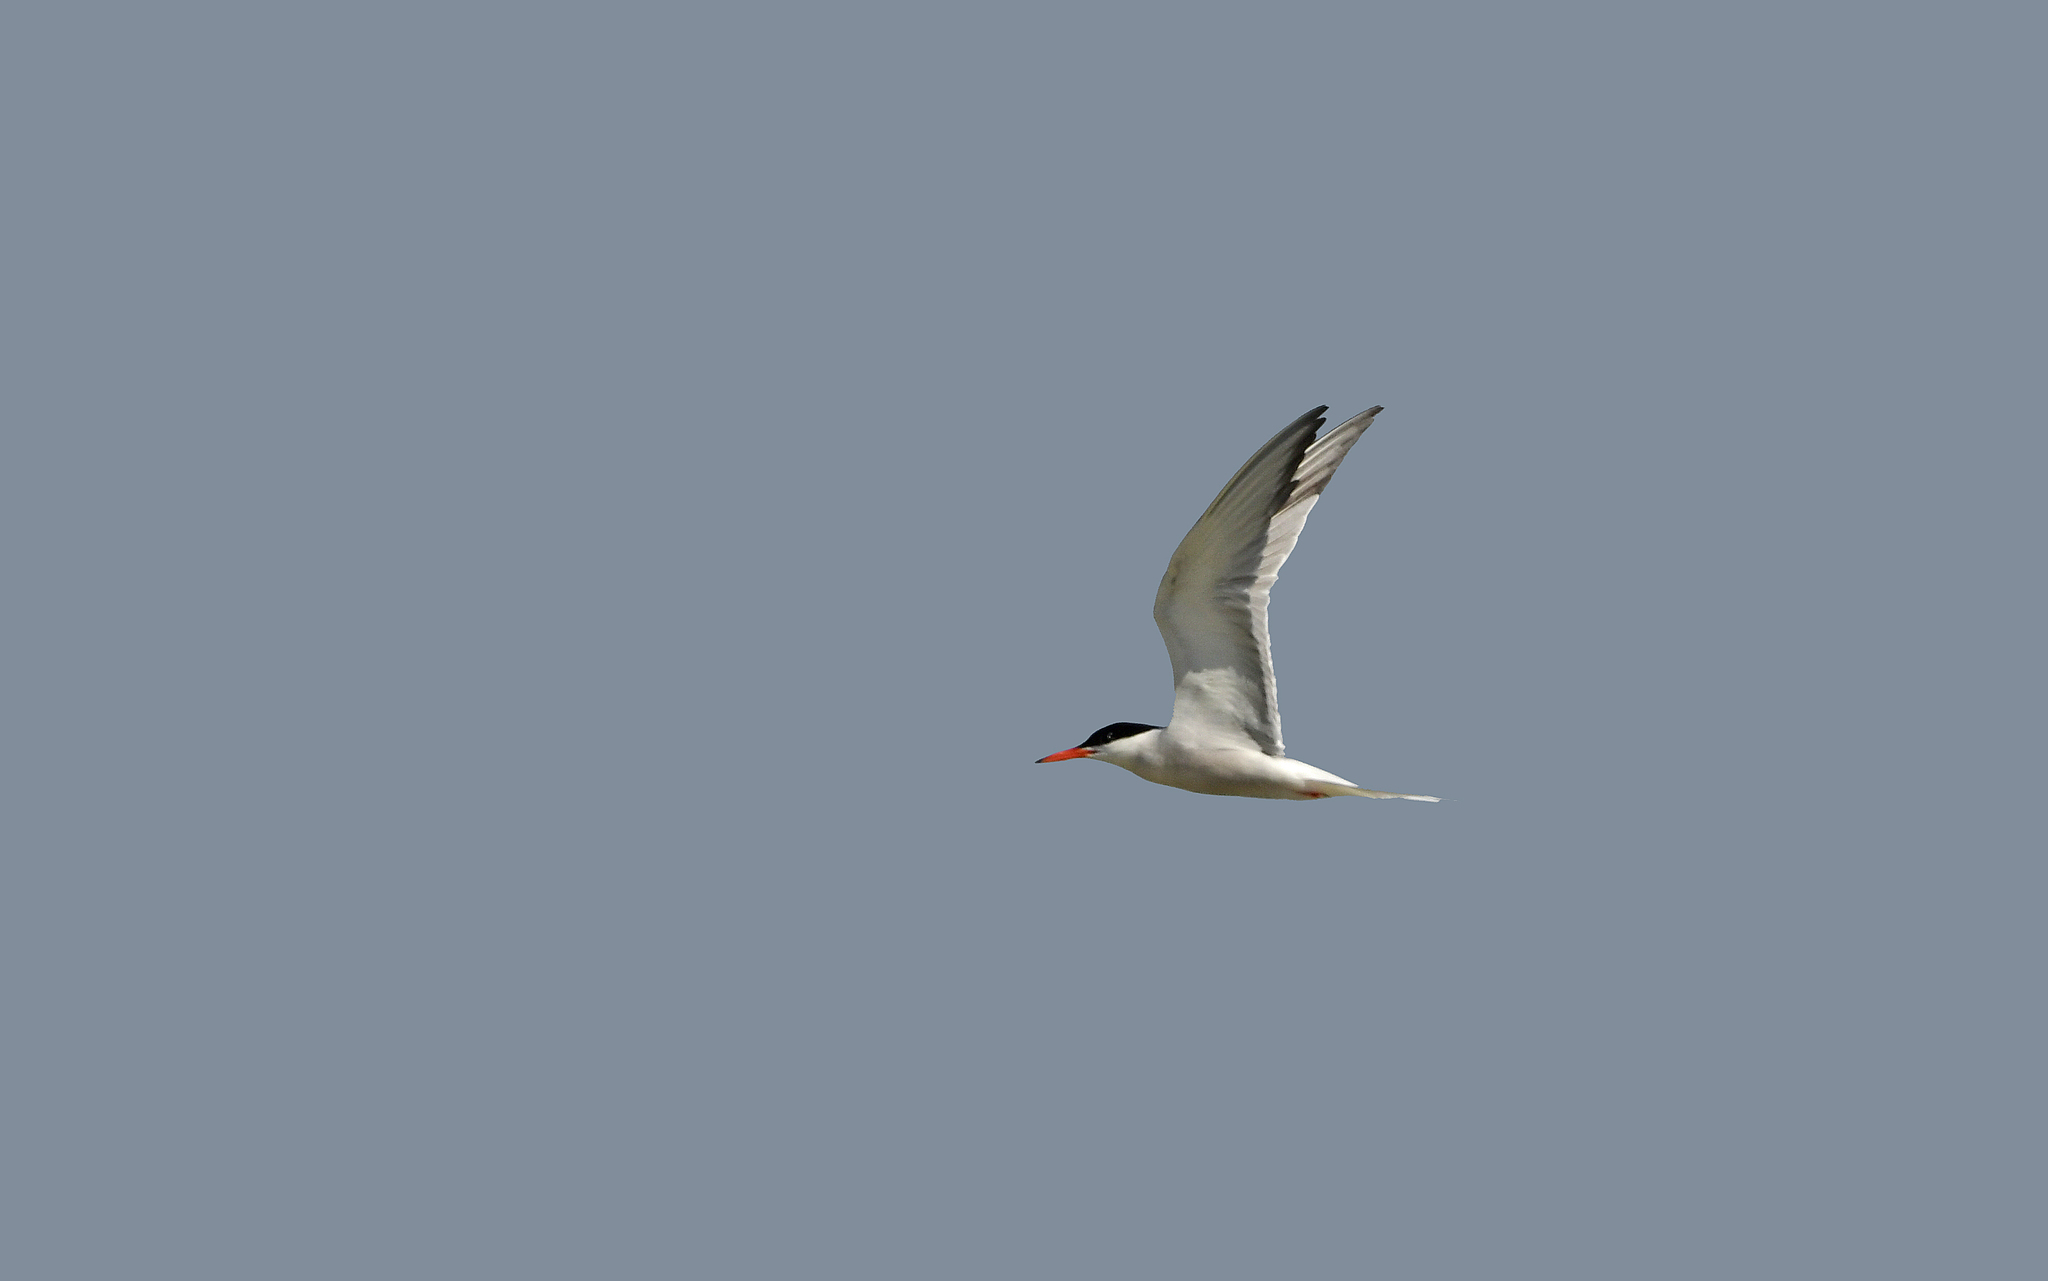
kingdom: Animalia
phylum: Chordata
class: Aves
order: Charadriiformes
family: Laridae
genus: Sterna
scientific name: Sterna hirundo
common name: Common tern
